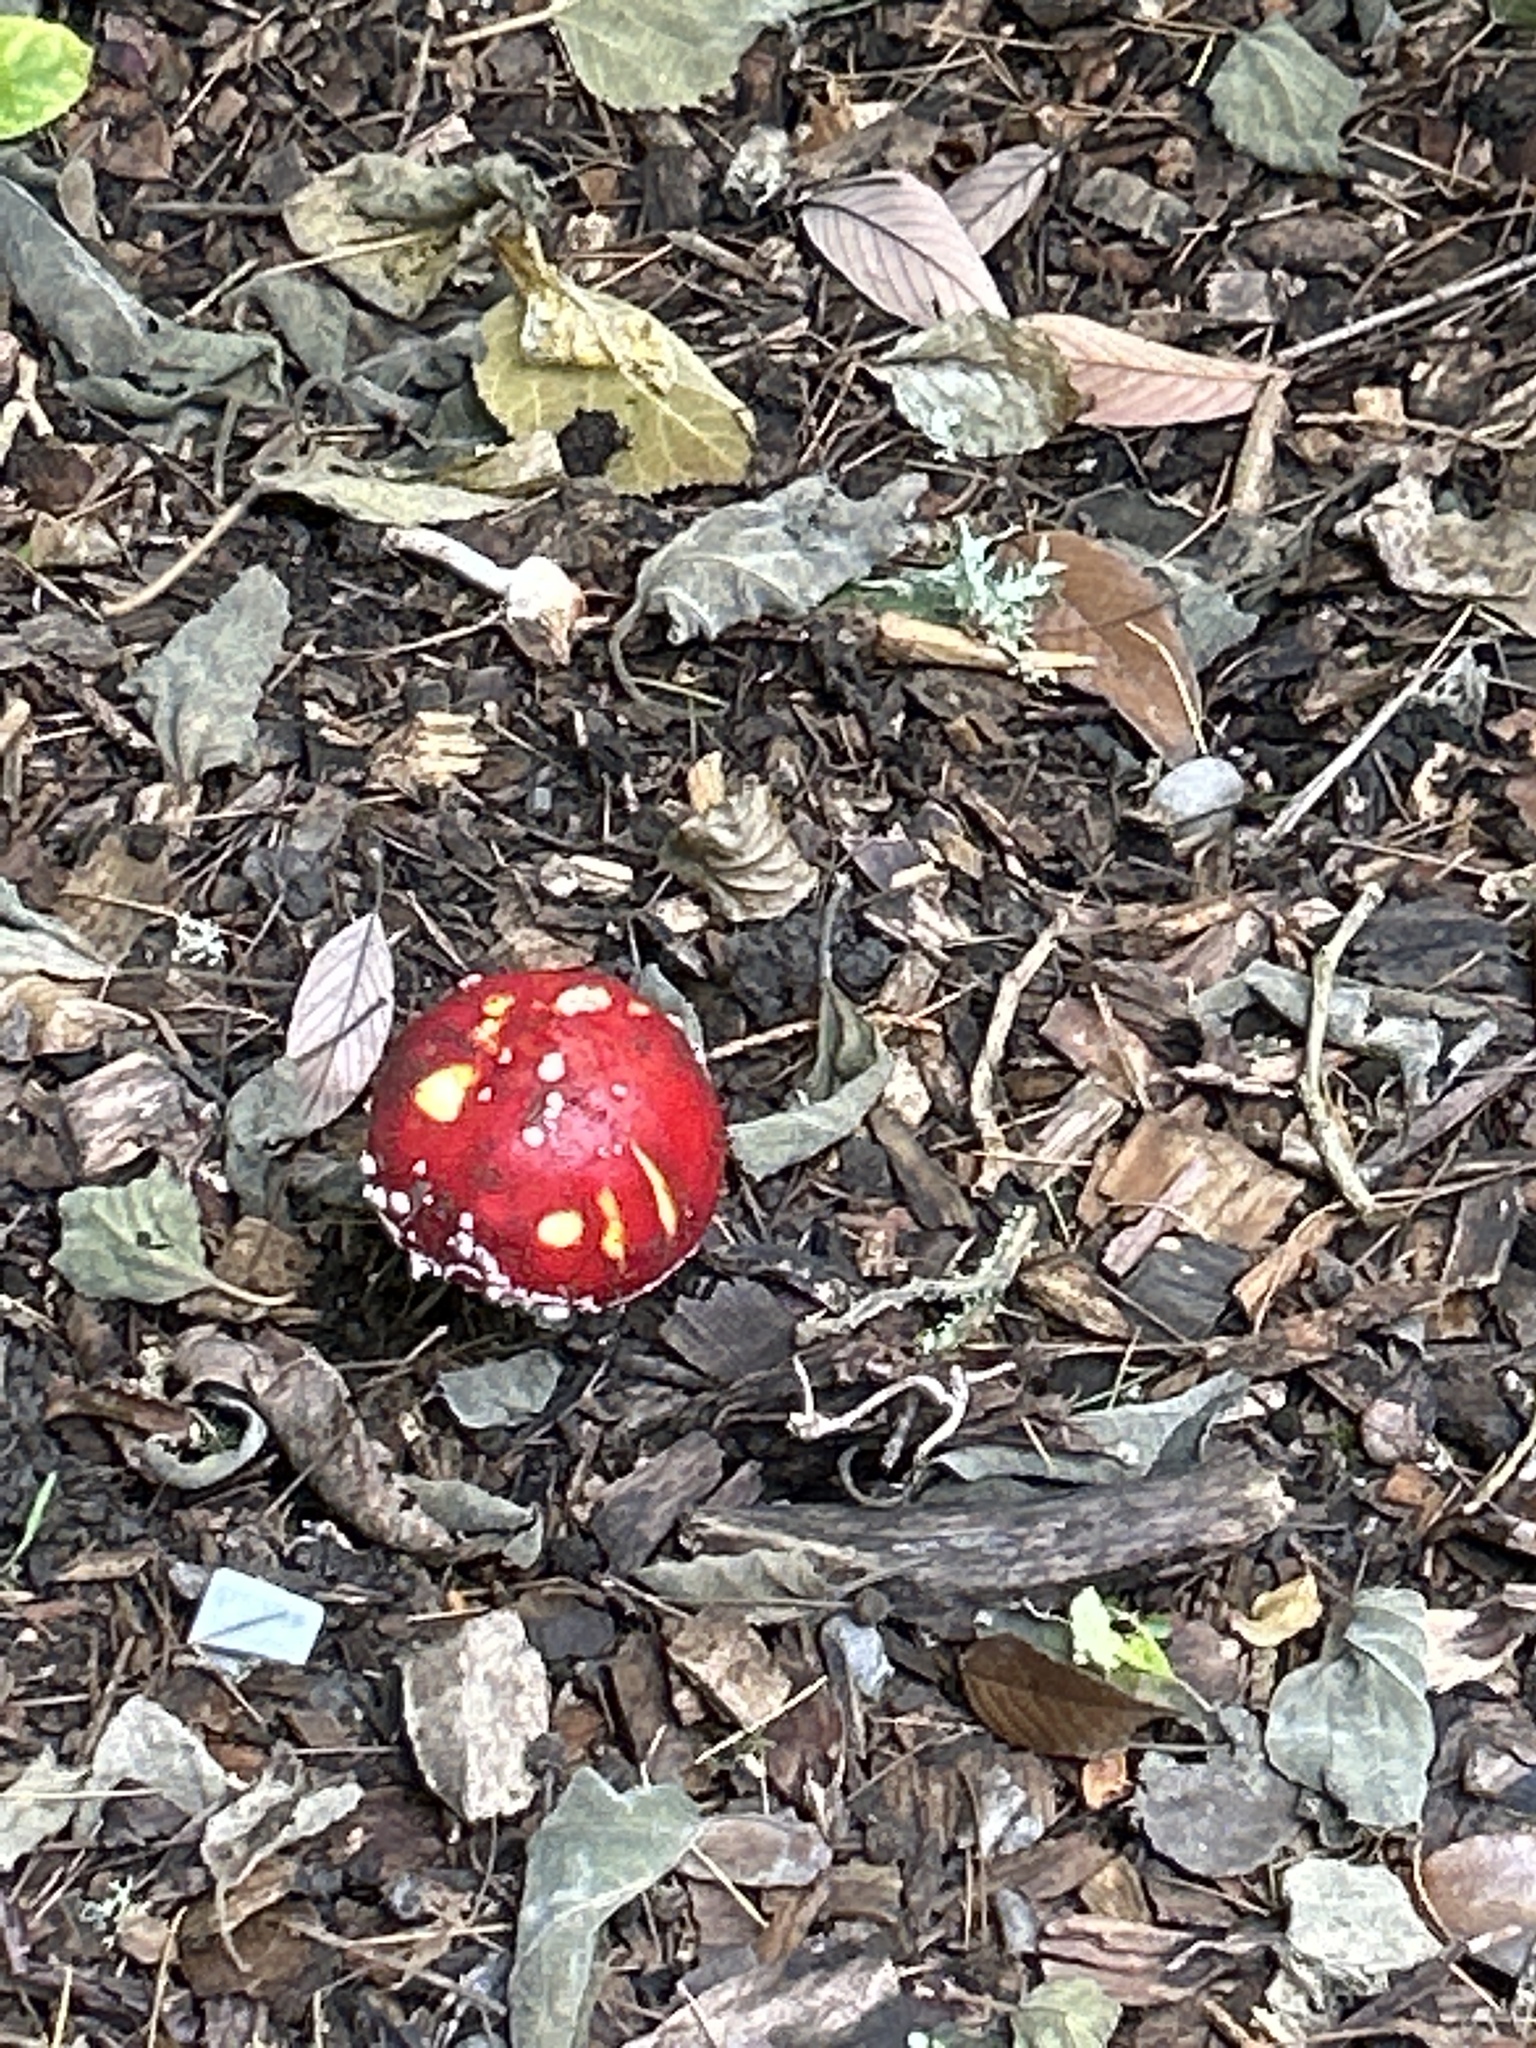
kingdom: Fungi
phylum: Basidiomycota
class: Agaricomycetes
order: Agaricales
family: Amanitaceae
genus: Amanita
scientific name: Amanita muscaria
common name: Fly agaric
